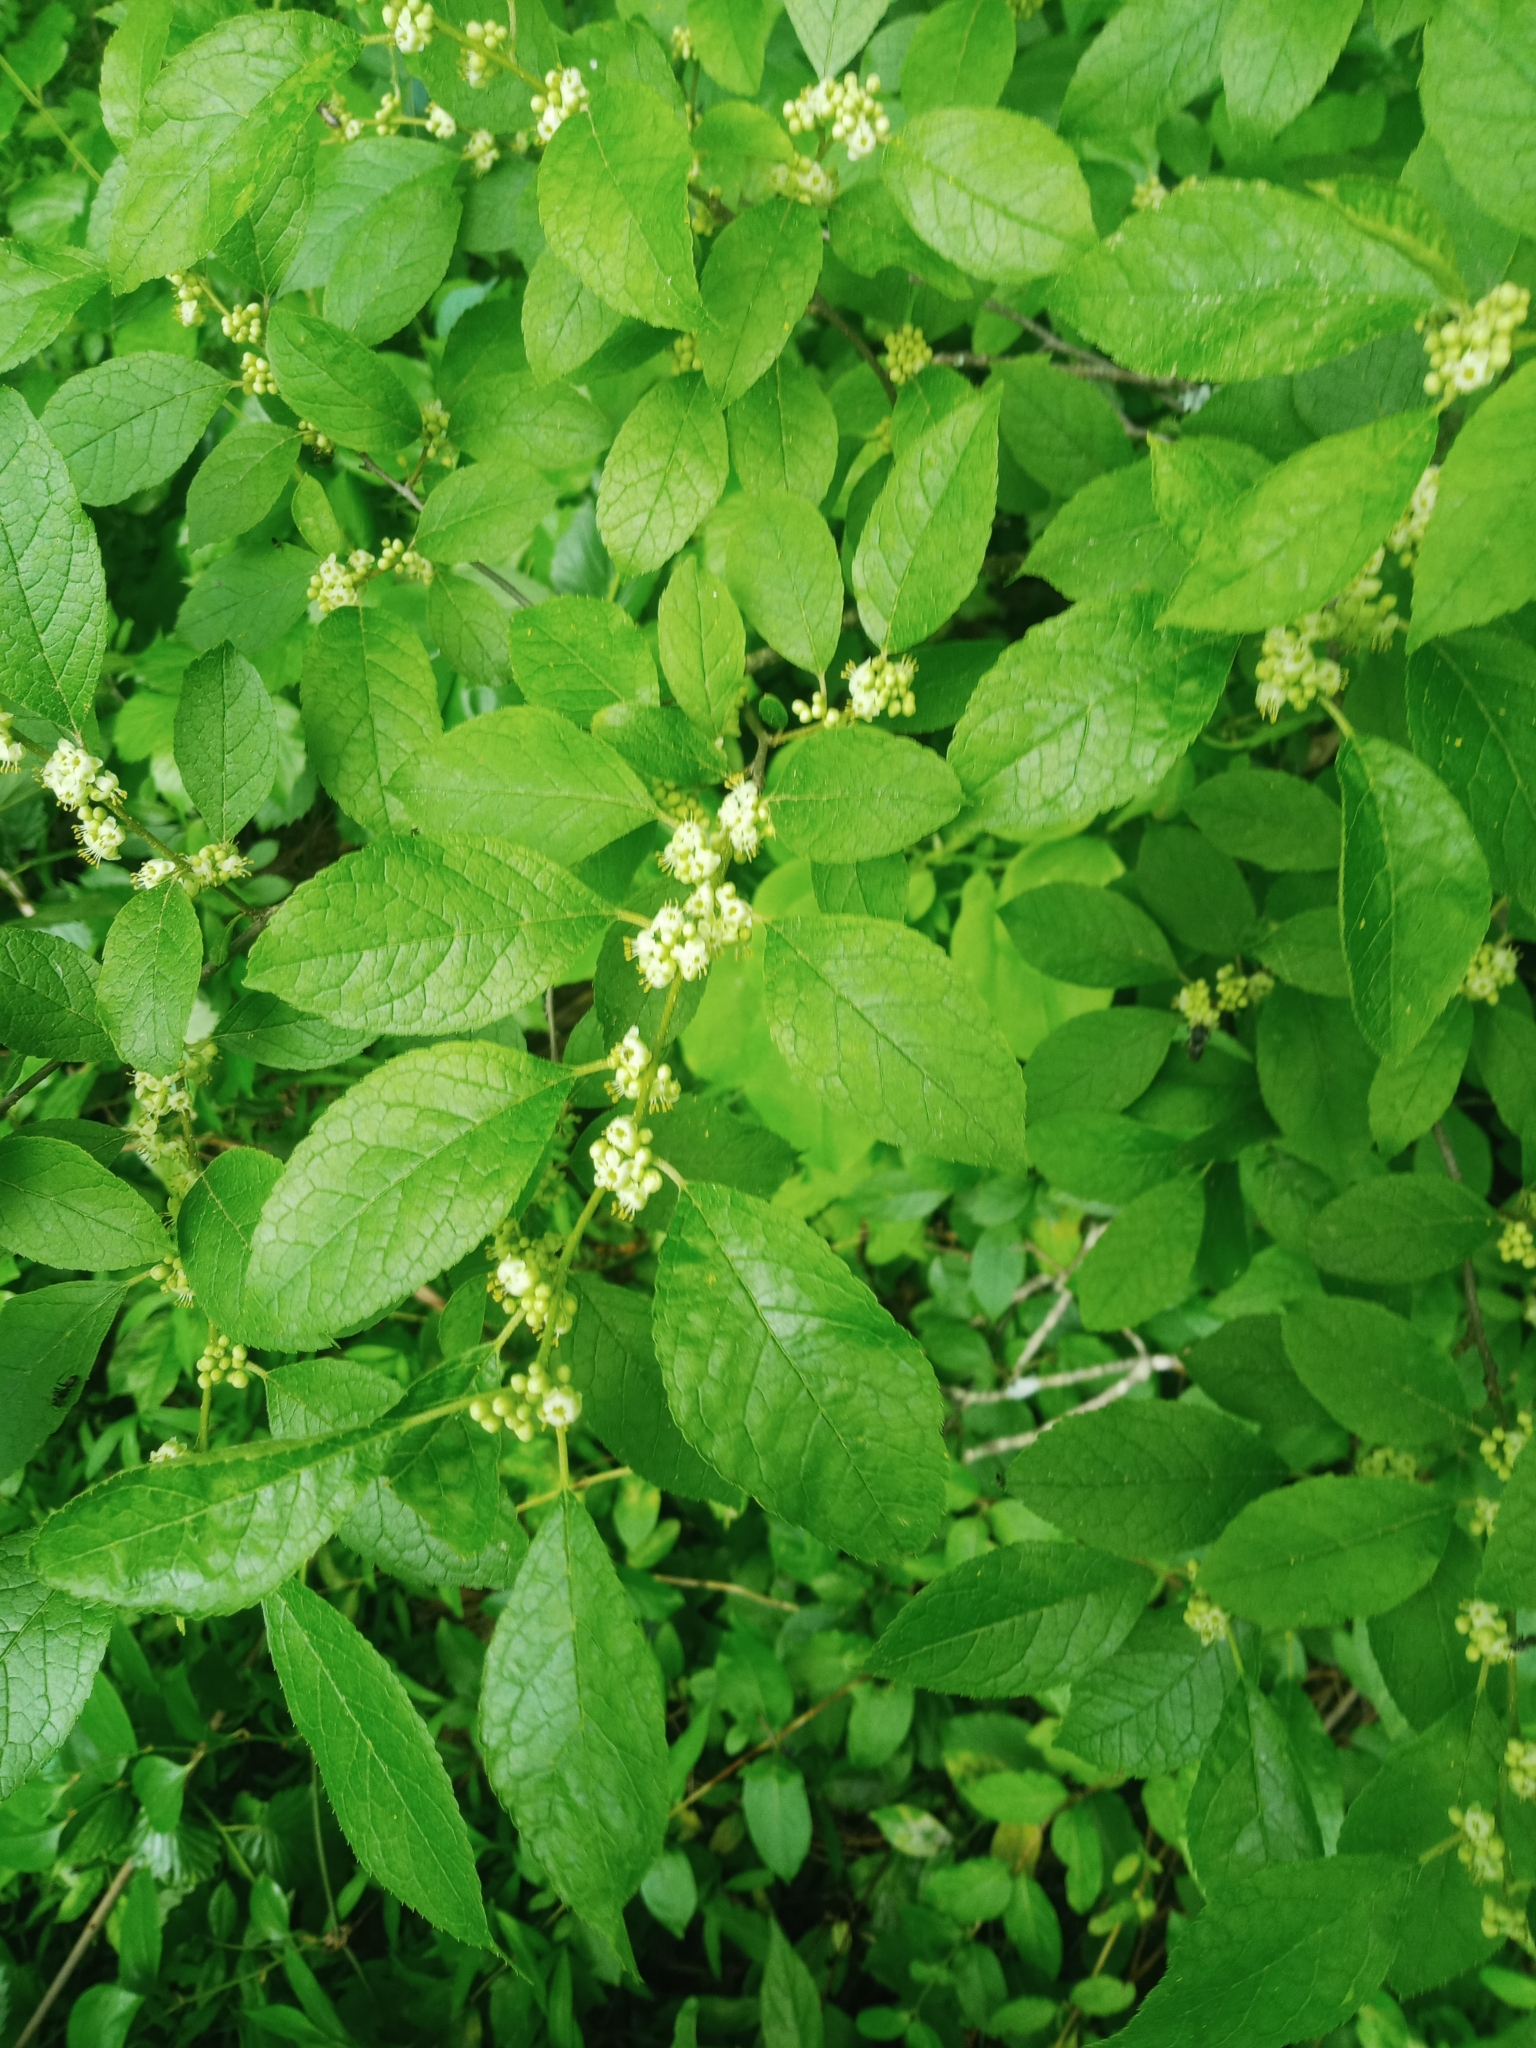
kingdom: Plantae
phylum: Tracheophyta
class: Magnoliopsida
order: Aquifoliales
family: Aquifoliaceae
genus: Ilex
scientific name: Ilex verticillata
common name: Virginia winterberry
